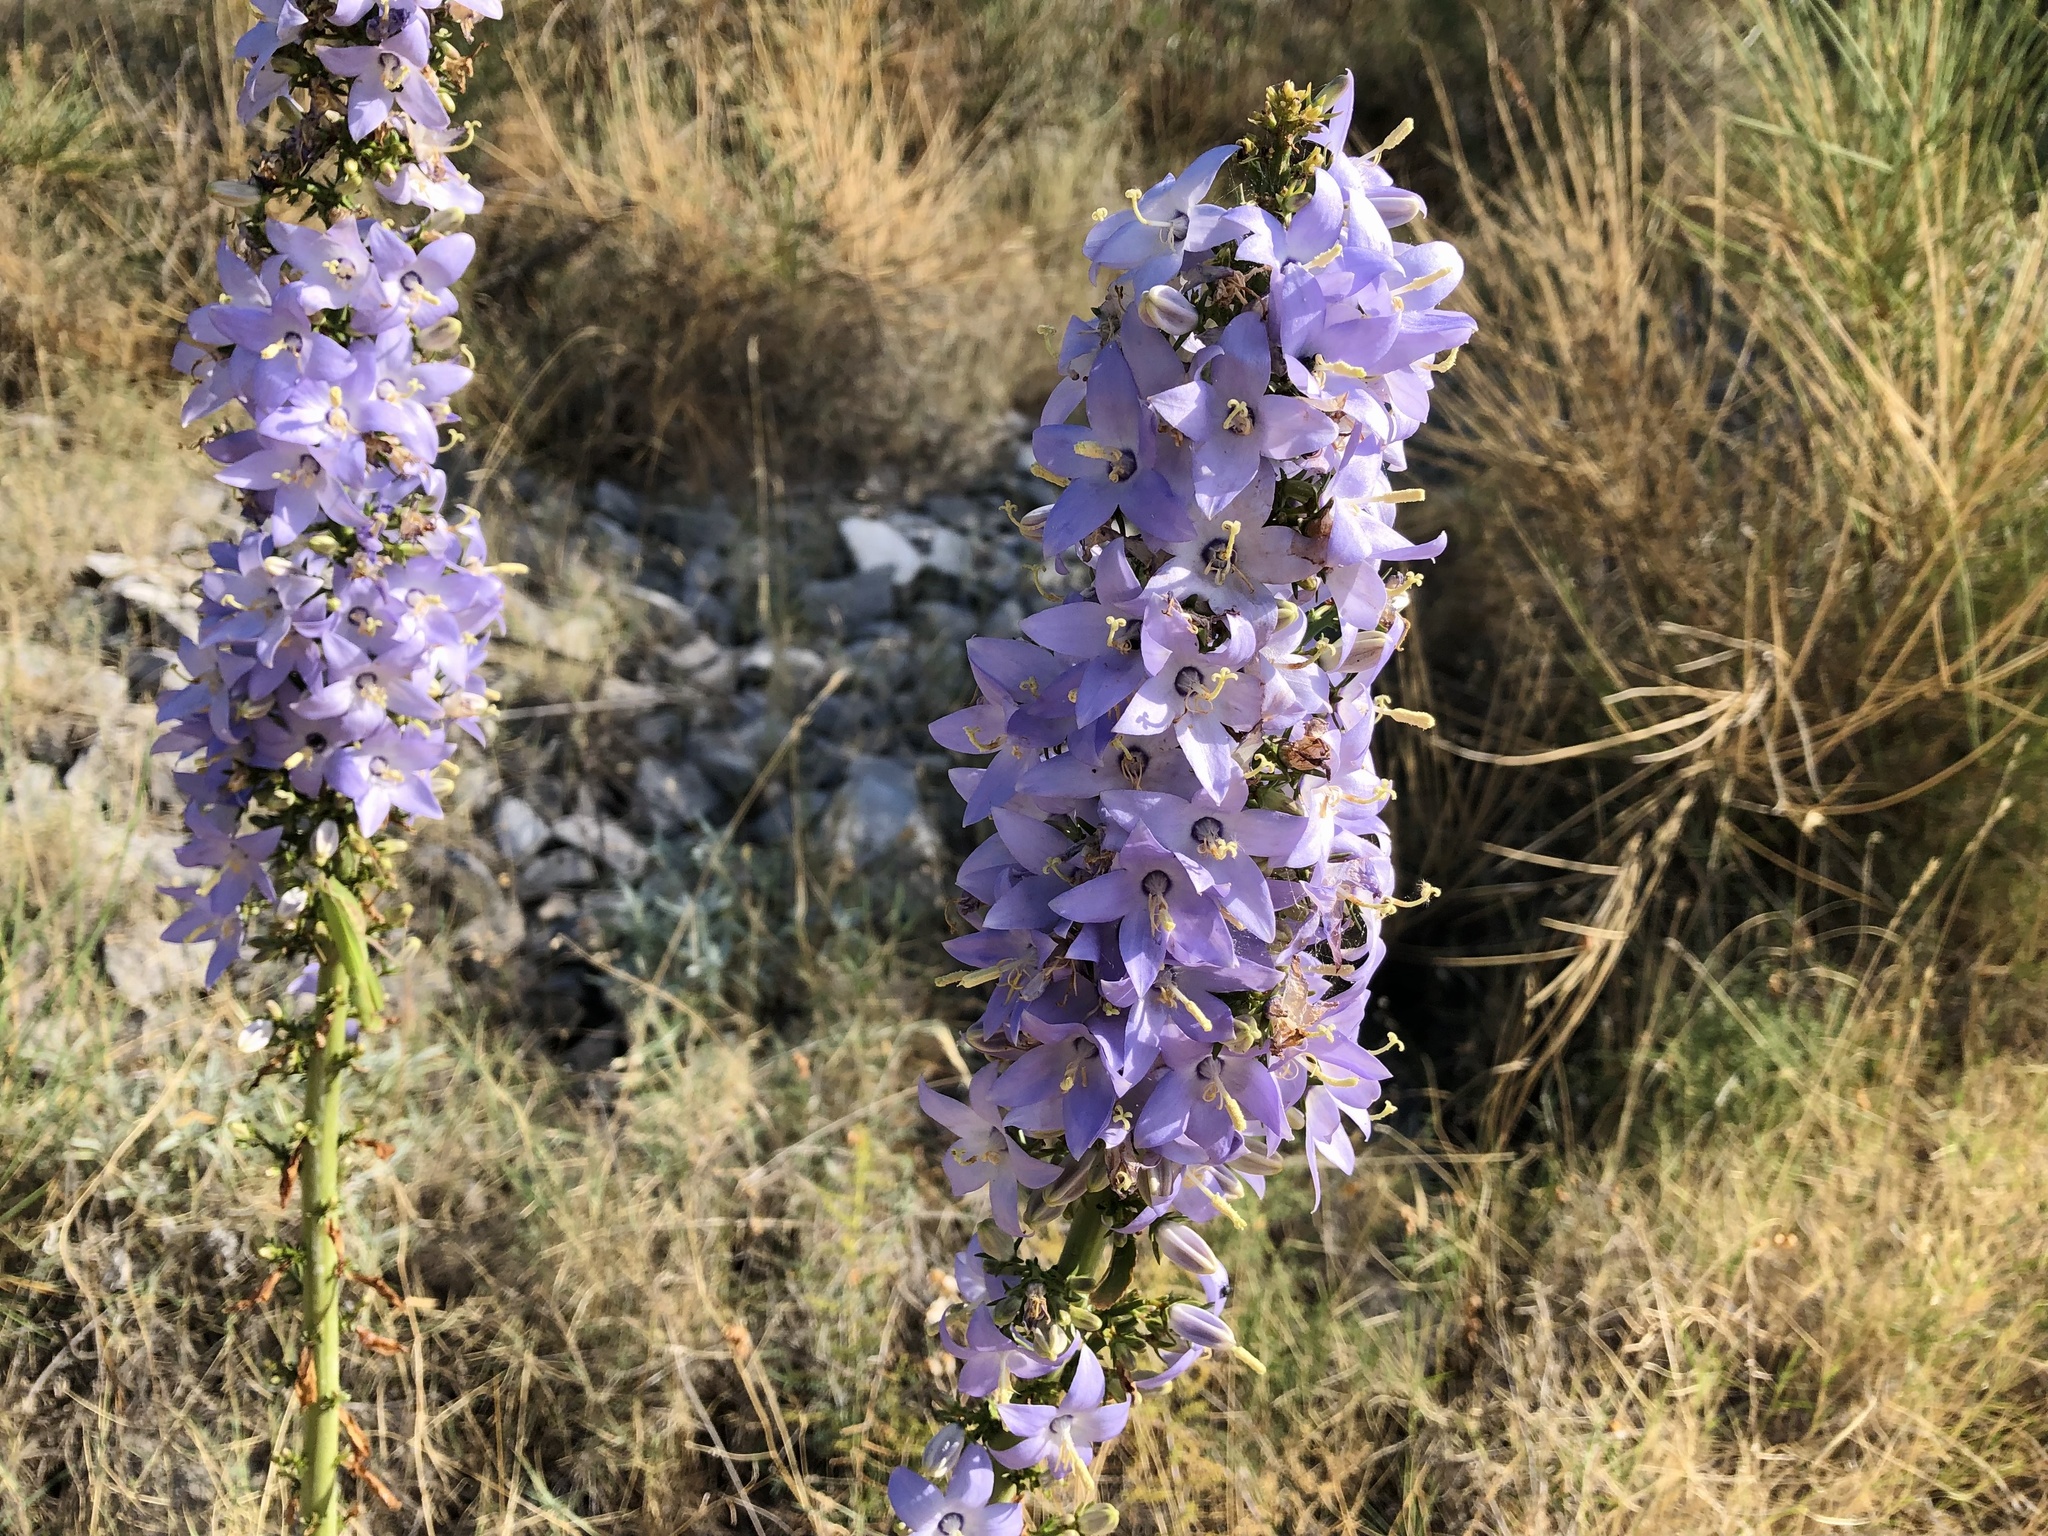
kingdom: Plantae
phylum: Tracheophyta
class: Magnoliopsida
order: Asterales
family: Campanulaceae
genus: Campanula
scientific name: Campanula pyramidalis
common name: Chimney bellflower
